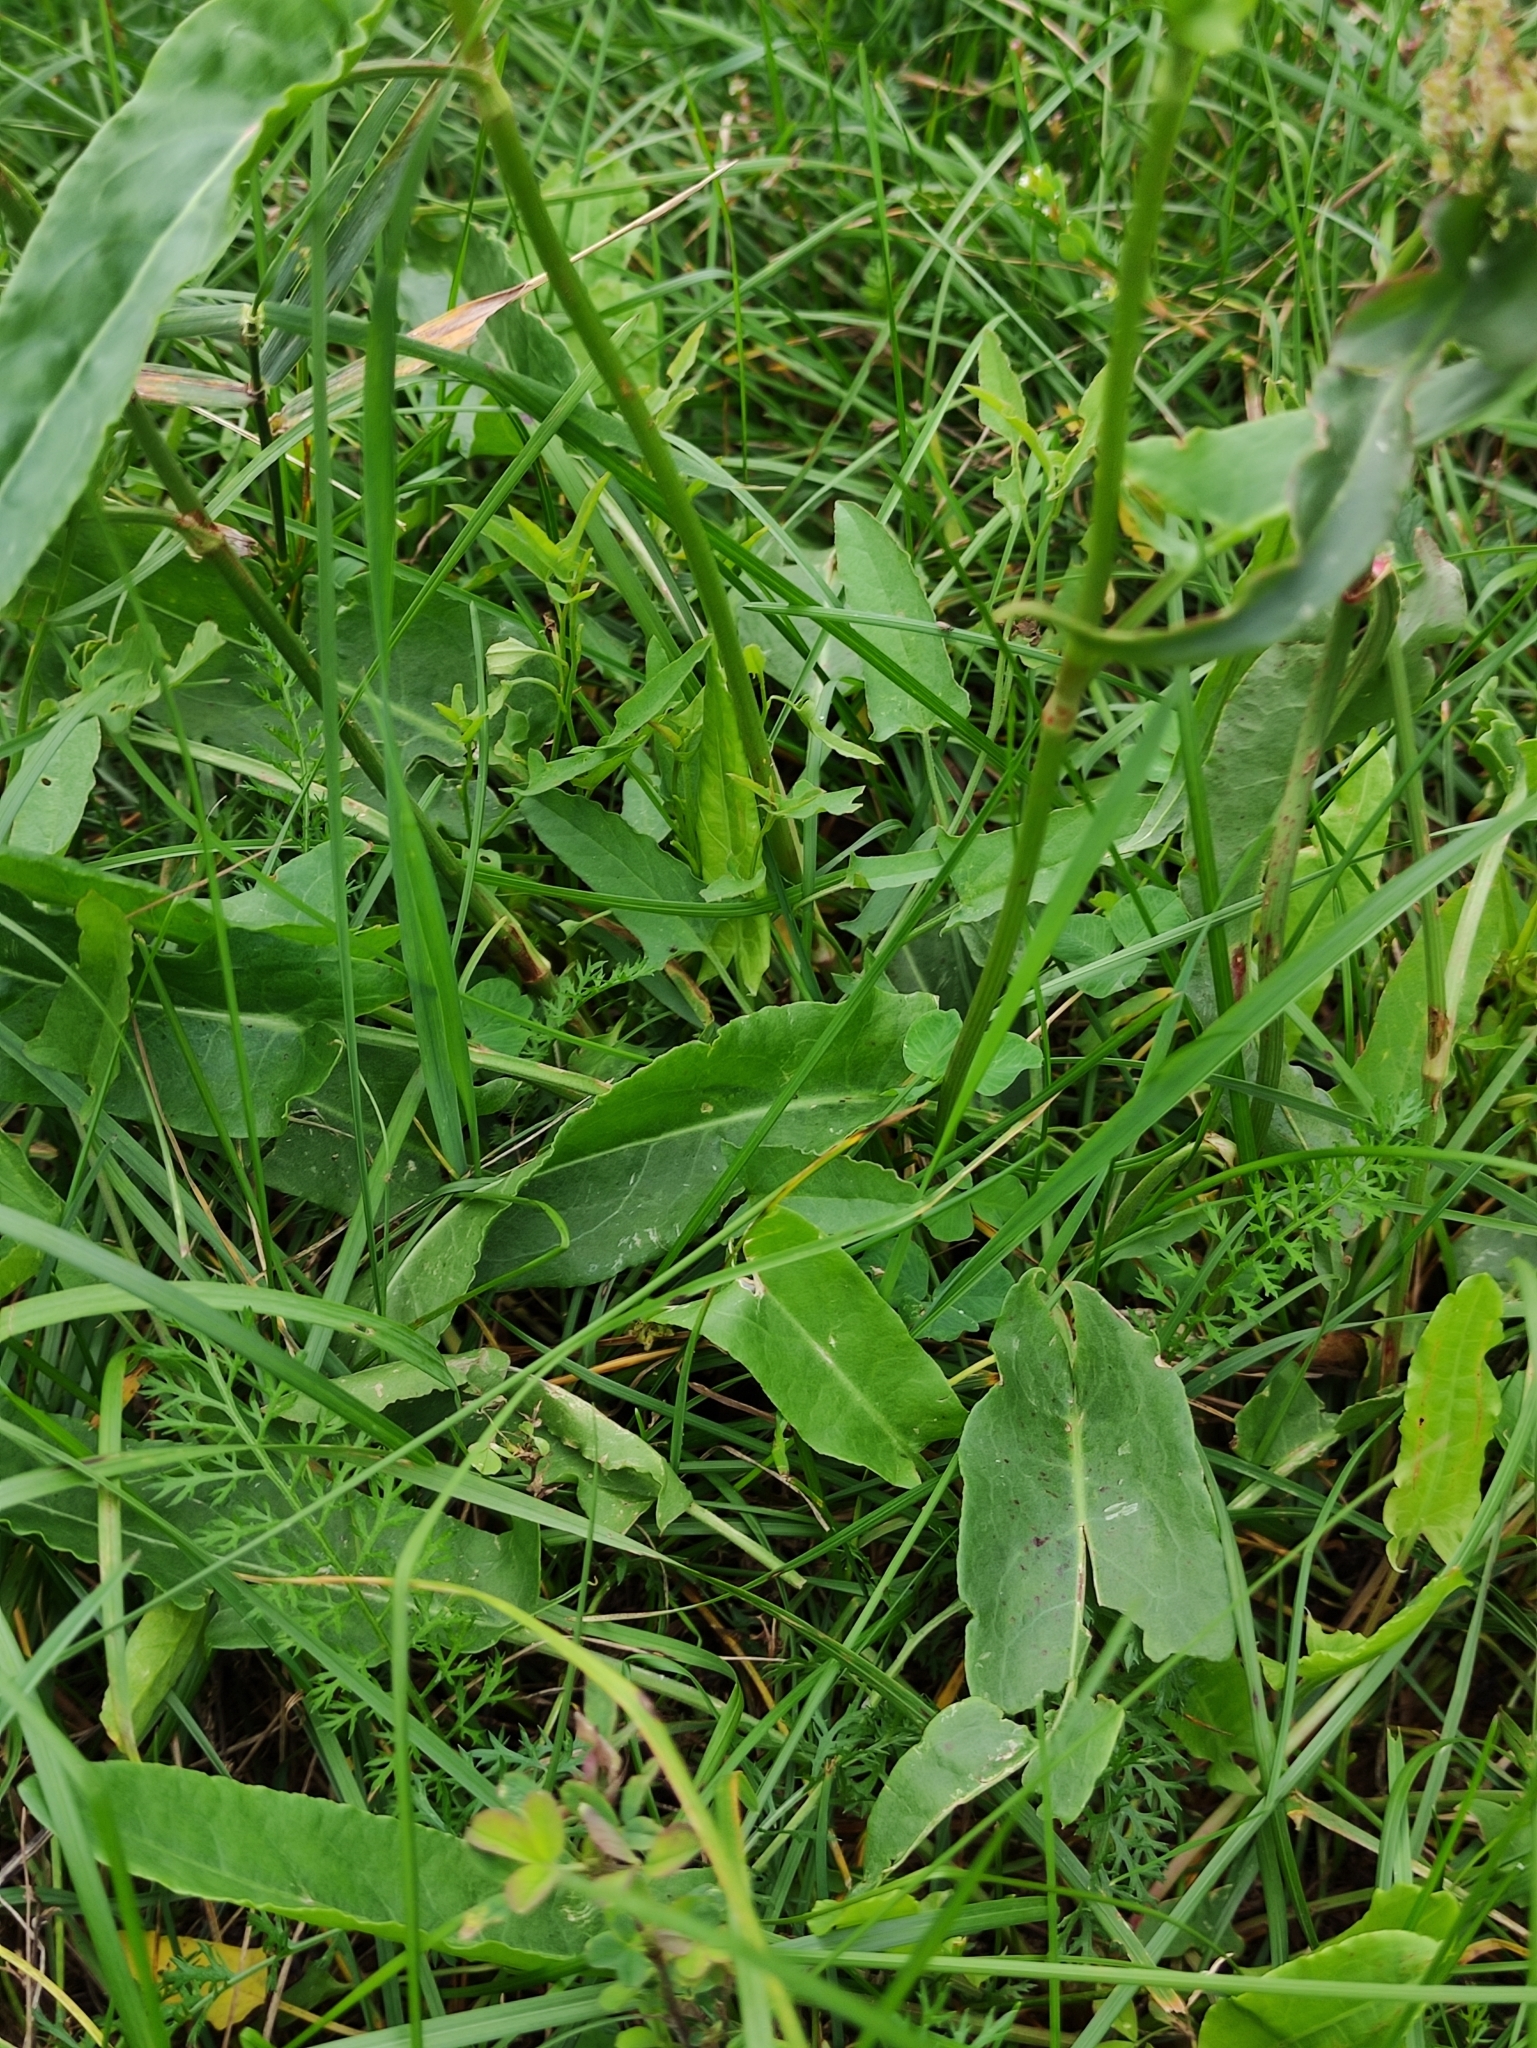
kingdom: Plantae
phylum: Tracheophyta
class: Magnoliopsida
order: Caryophyllales
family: Polygonaceae
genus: Rumex
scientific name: Rumex acetosa
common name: Garden sorrel
